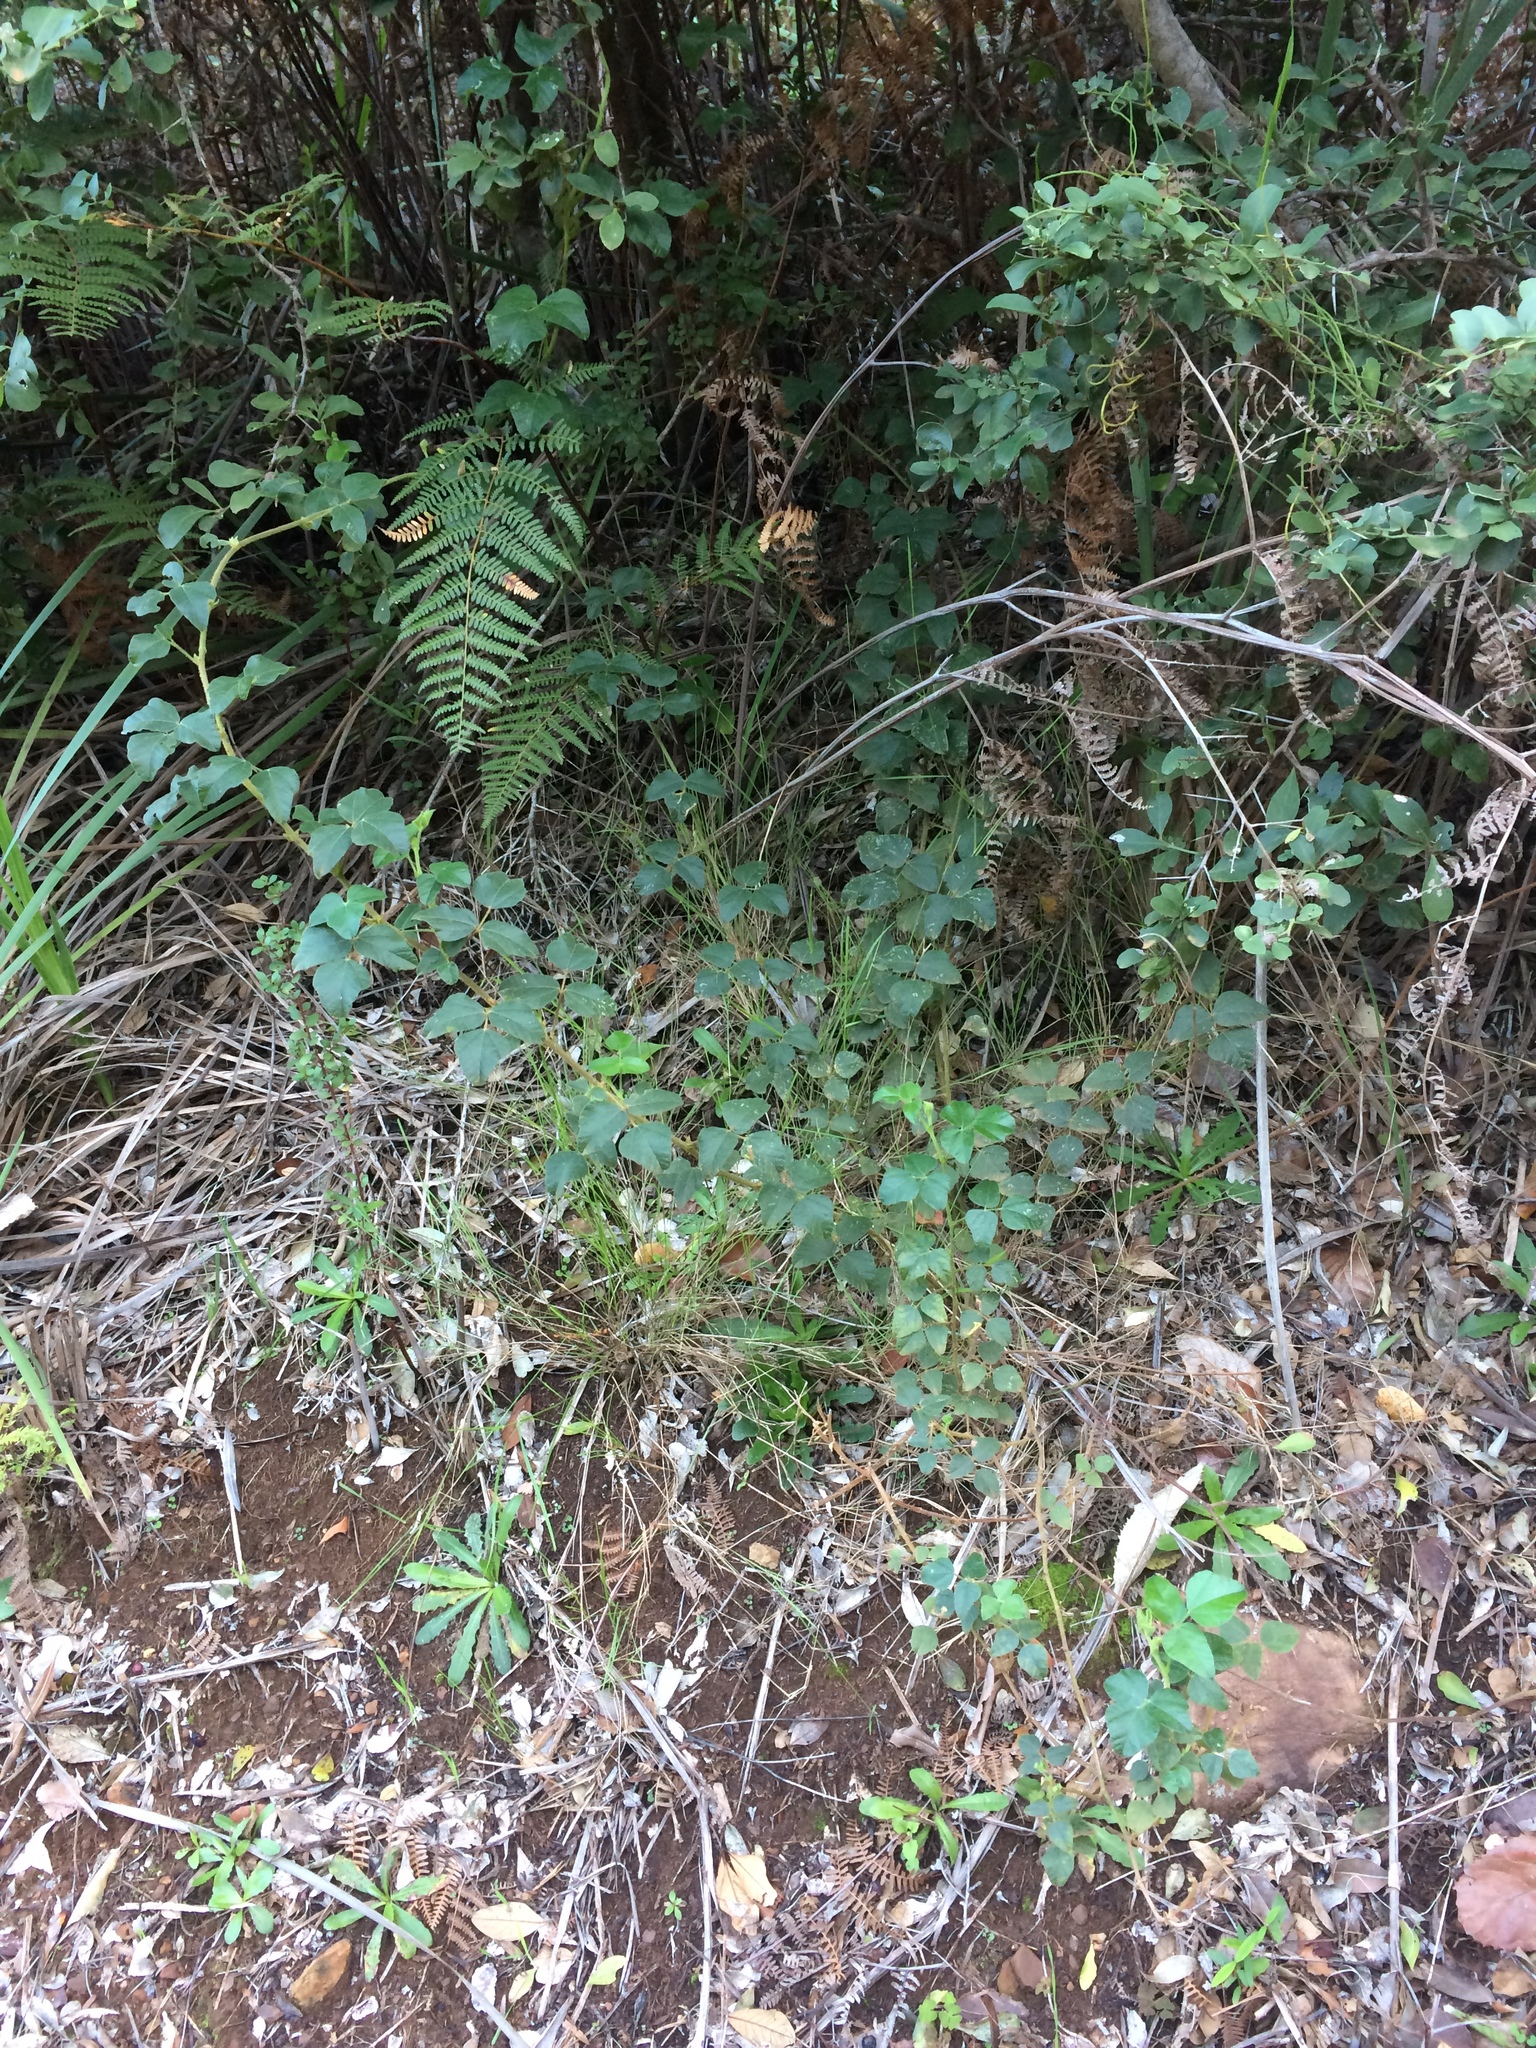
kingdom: Plantae
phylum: Tracheophyta
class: Magnoliopsida
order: Fabales
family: Fabaceae
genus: Bolusafra
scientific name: Bolusafra bituminosa
